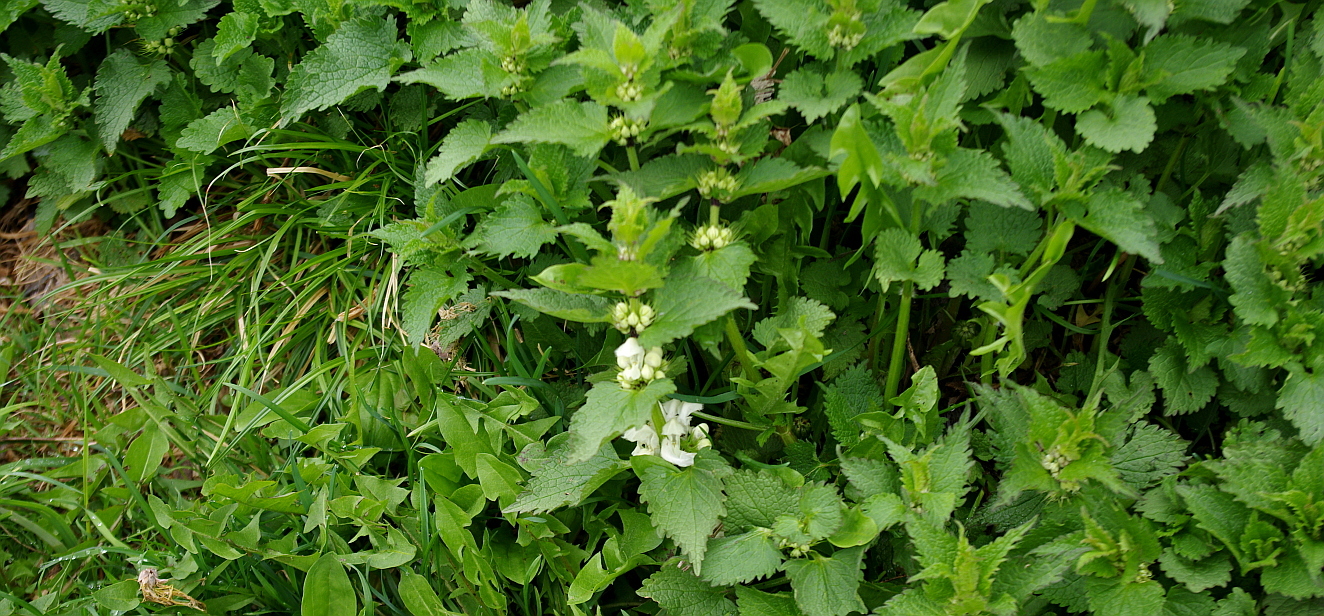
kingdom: Plantae
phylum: Tracheophyta
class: Magnoliopsida
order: Lamiales
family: Lamiaceae
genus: Lamium
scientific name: Lamium album
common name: White dead-nettle
